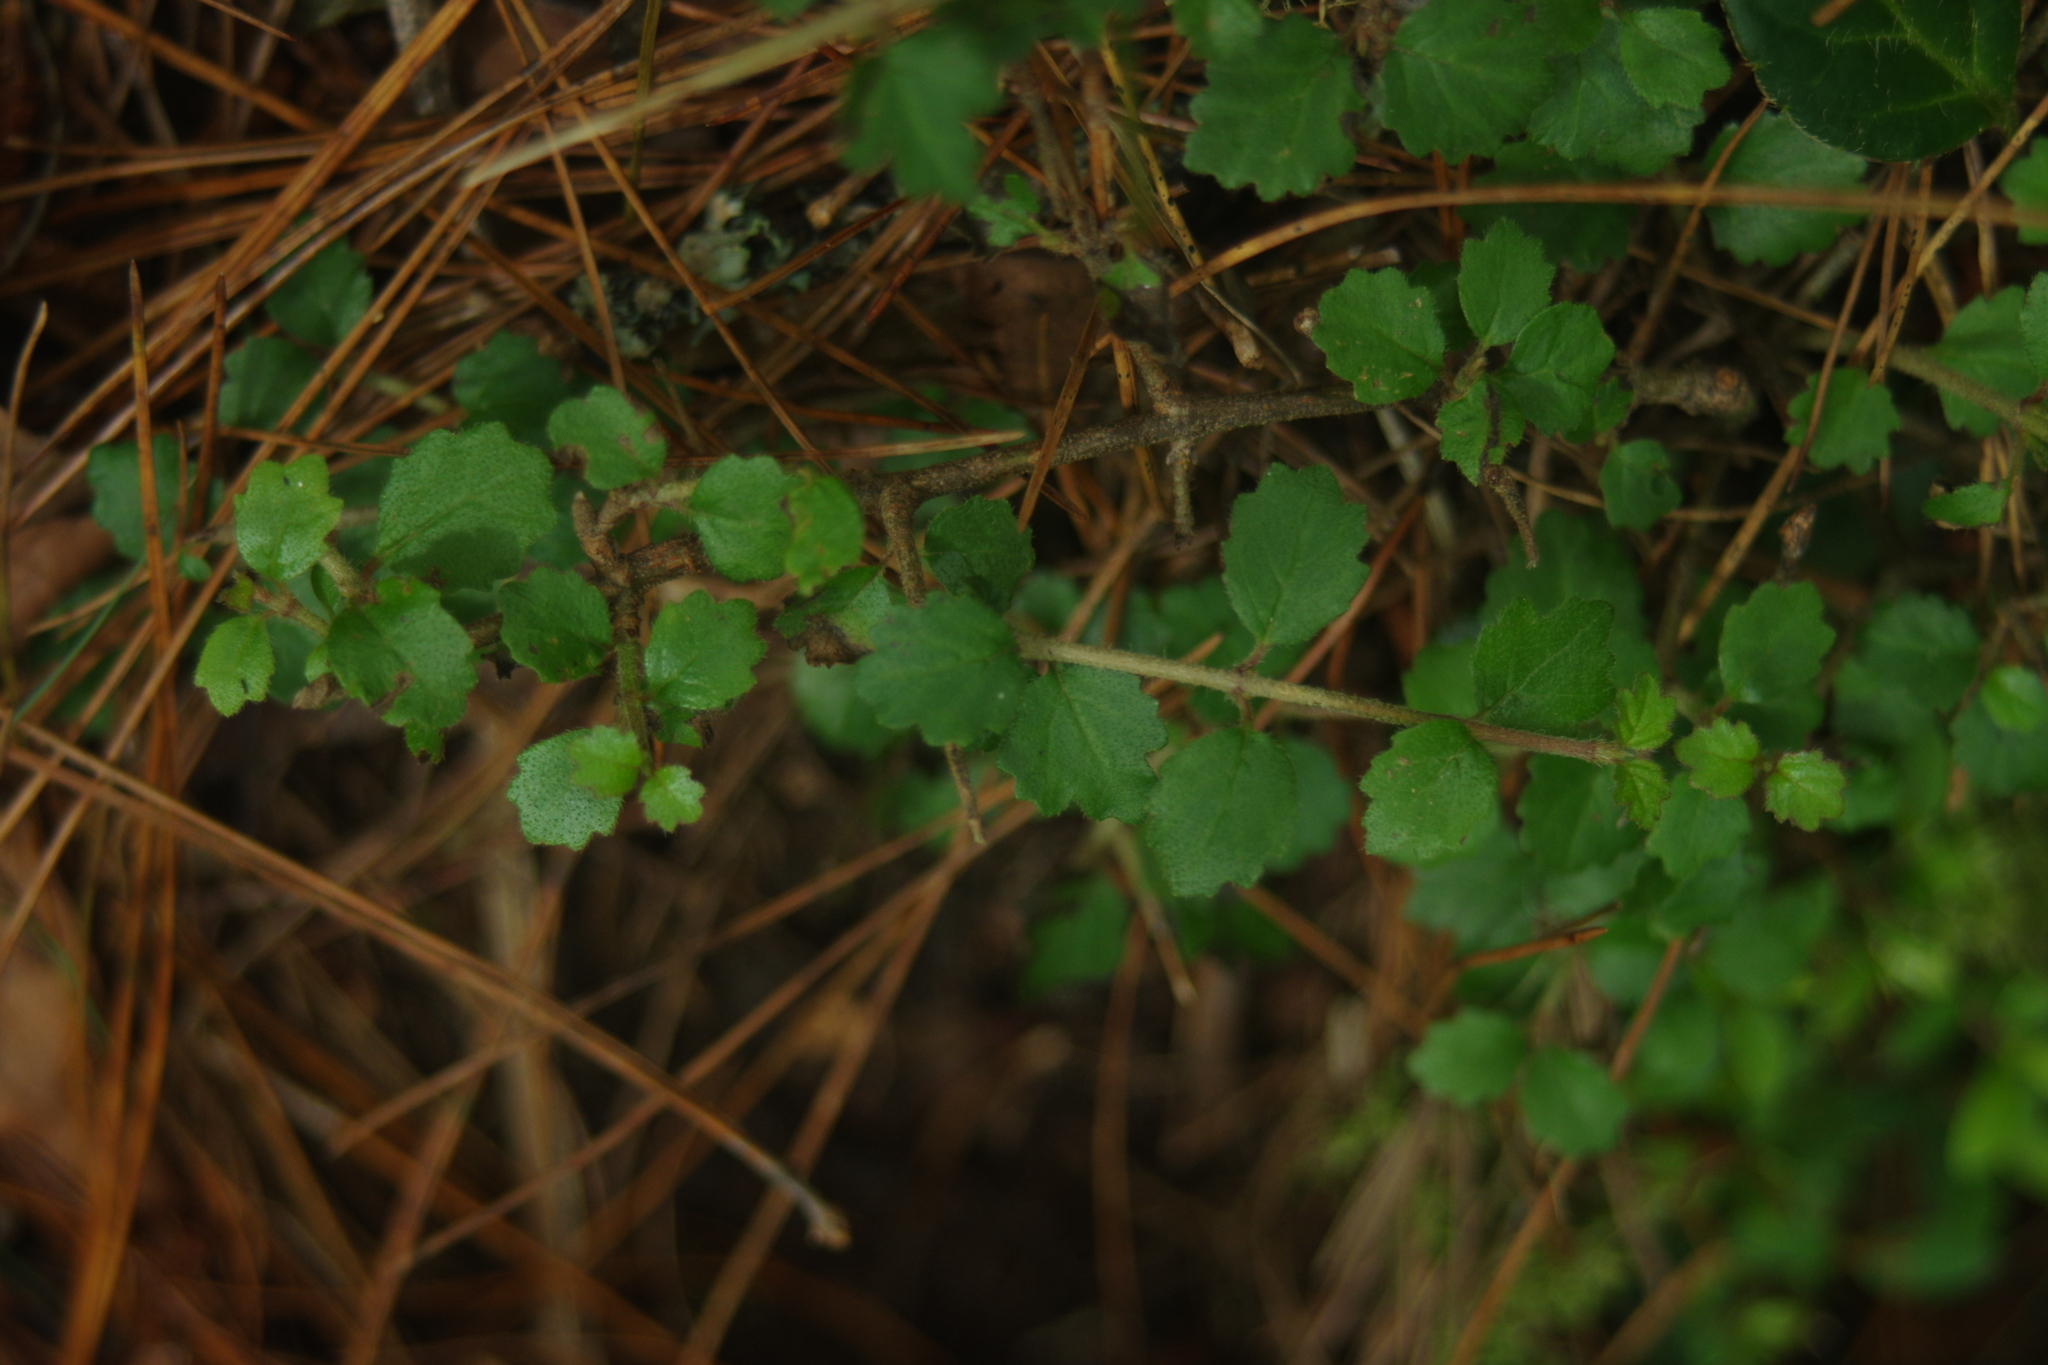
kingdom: Plantae
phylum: Tracheophyta
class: Magnoliopsida
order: Dipsacales
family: Viburnaceae
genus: Viburnum
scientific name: Viburnum parvifolium
